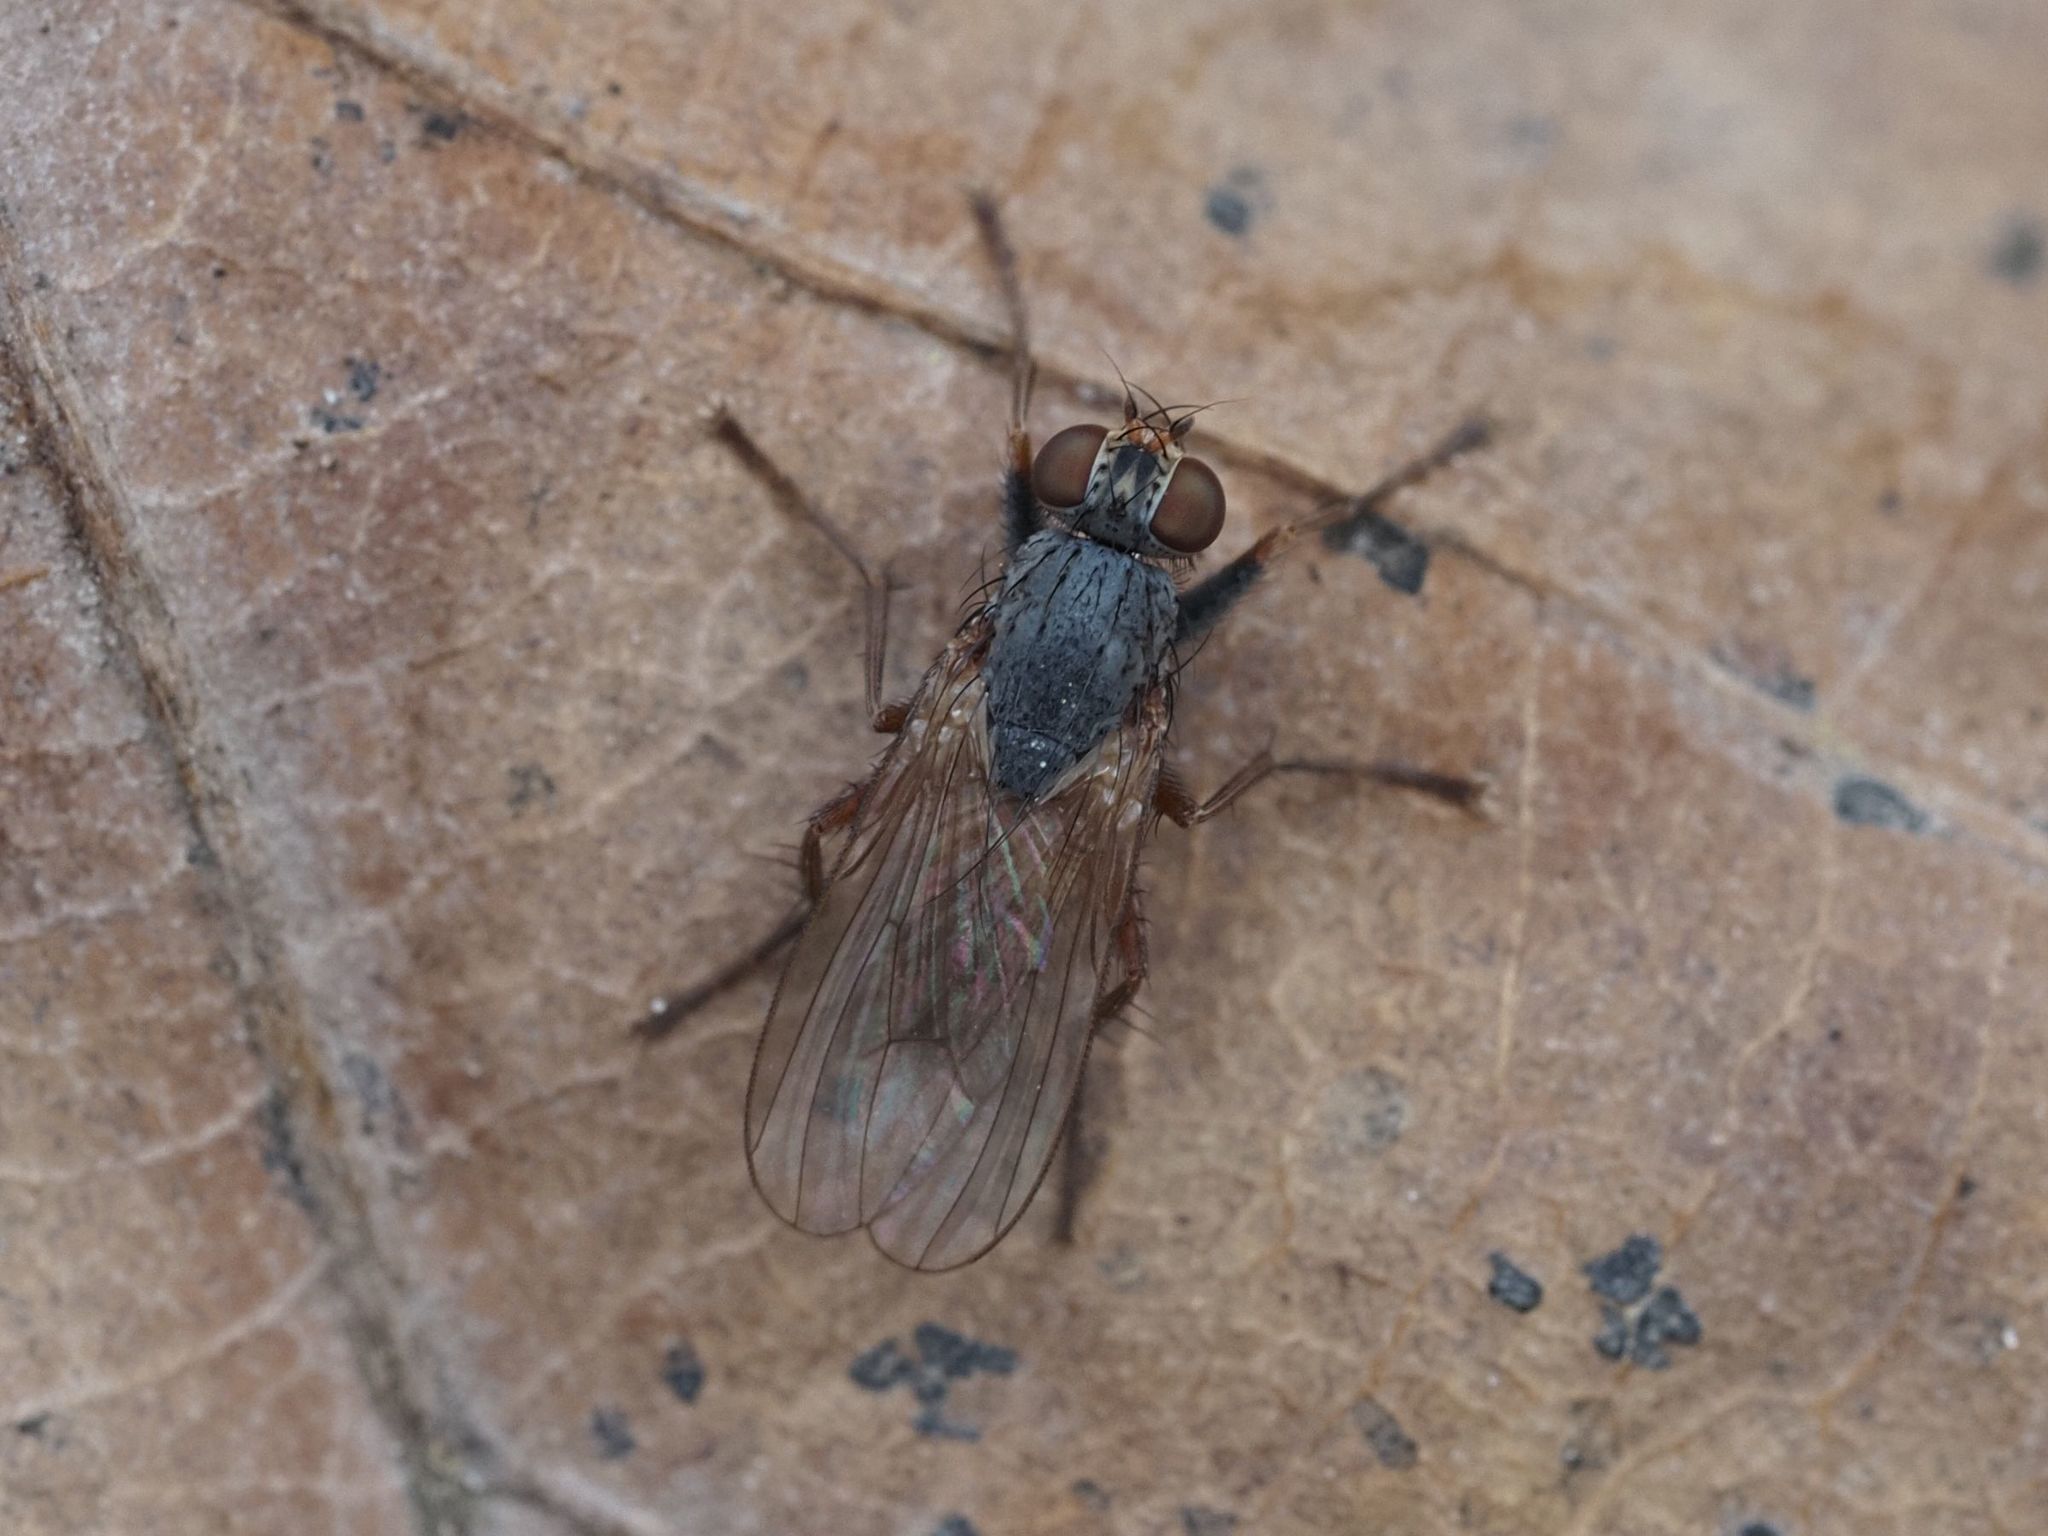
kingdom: Animalia
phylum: Arthropoda
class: Insecta
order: Diptera
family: Muscidae
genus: Lispocephala
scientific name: Lispocephala brachialis
